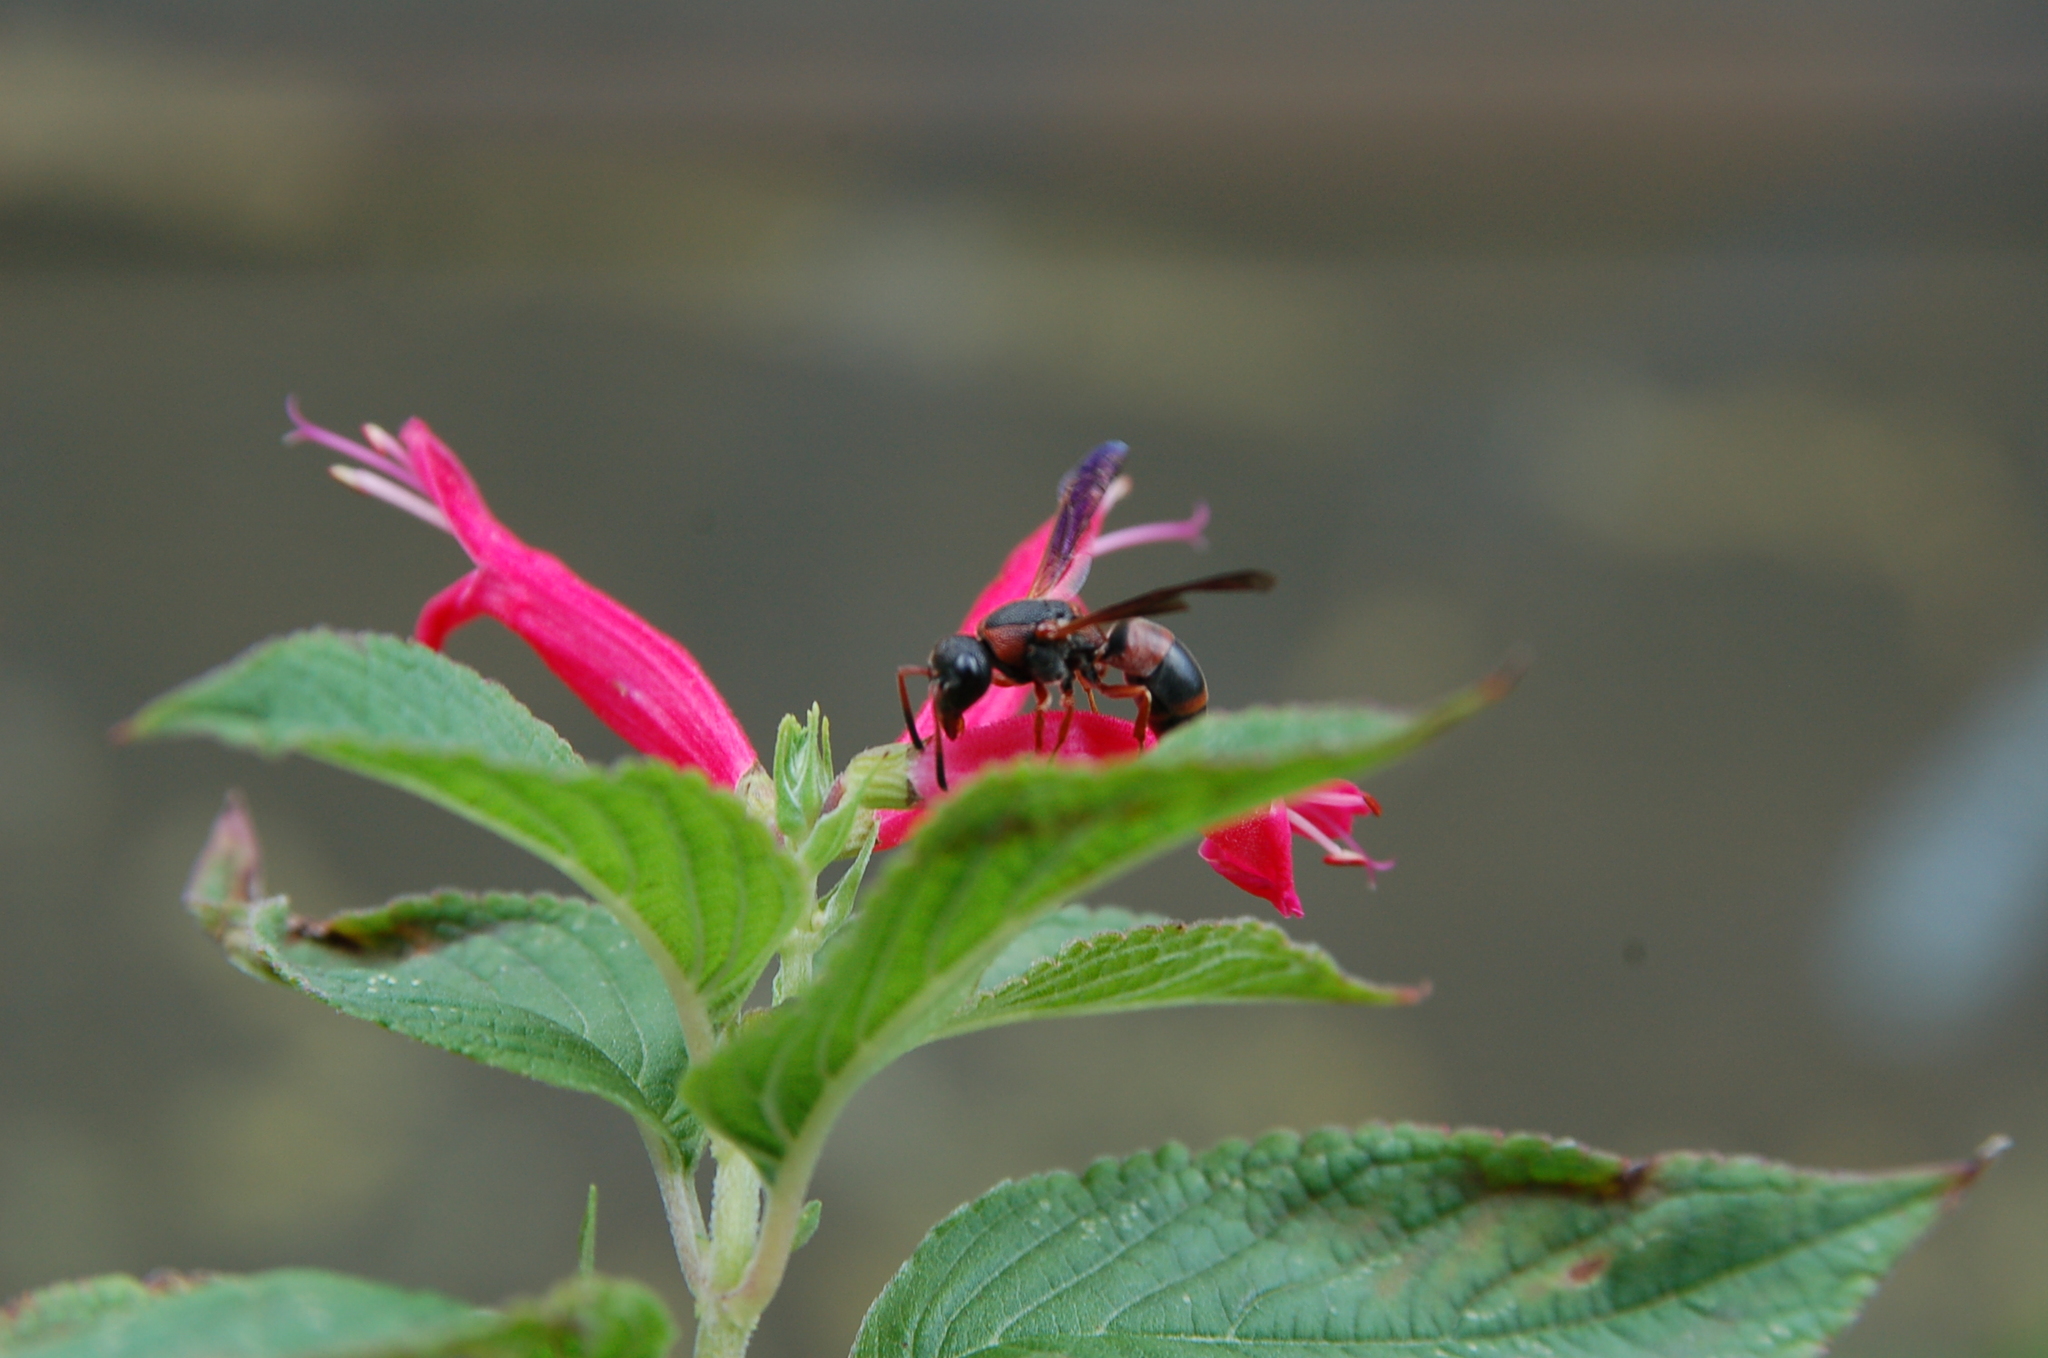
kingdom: Animalia
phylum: Arthropoda
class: Insecta
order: Hymenoptera
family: Eumenidae
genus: Pachodynerus
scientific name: Pachodynerus erynnis
